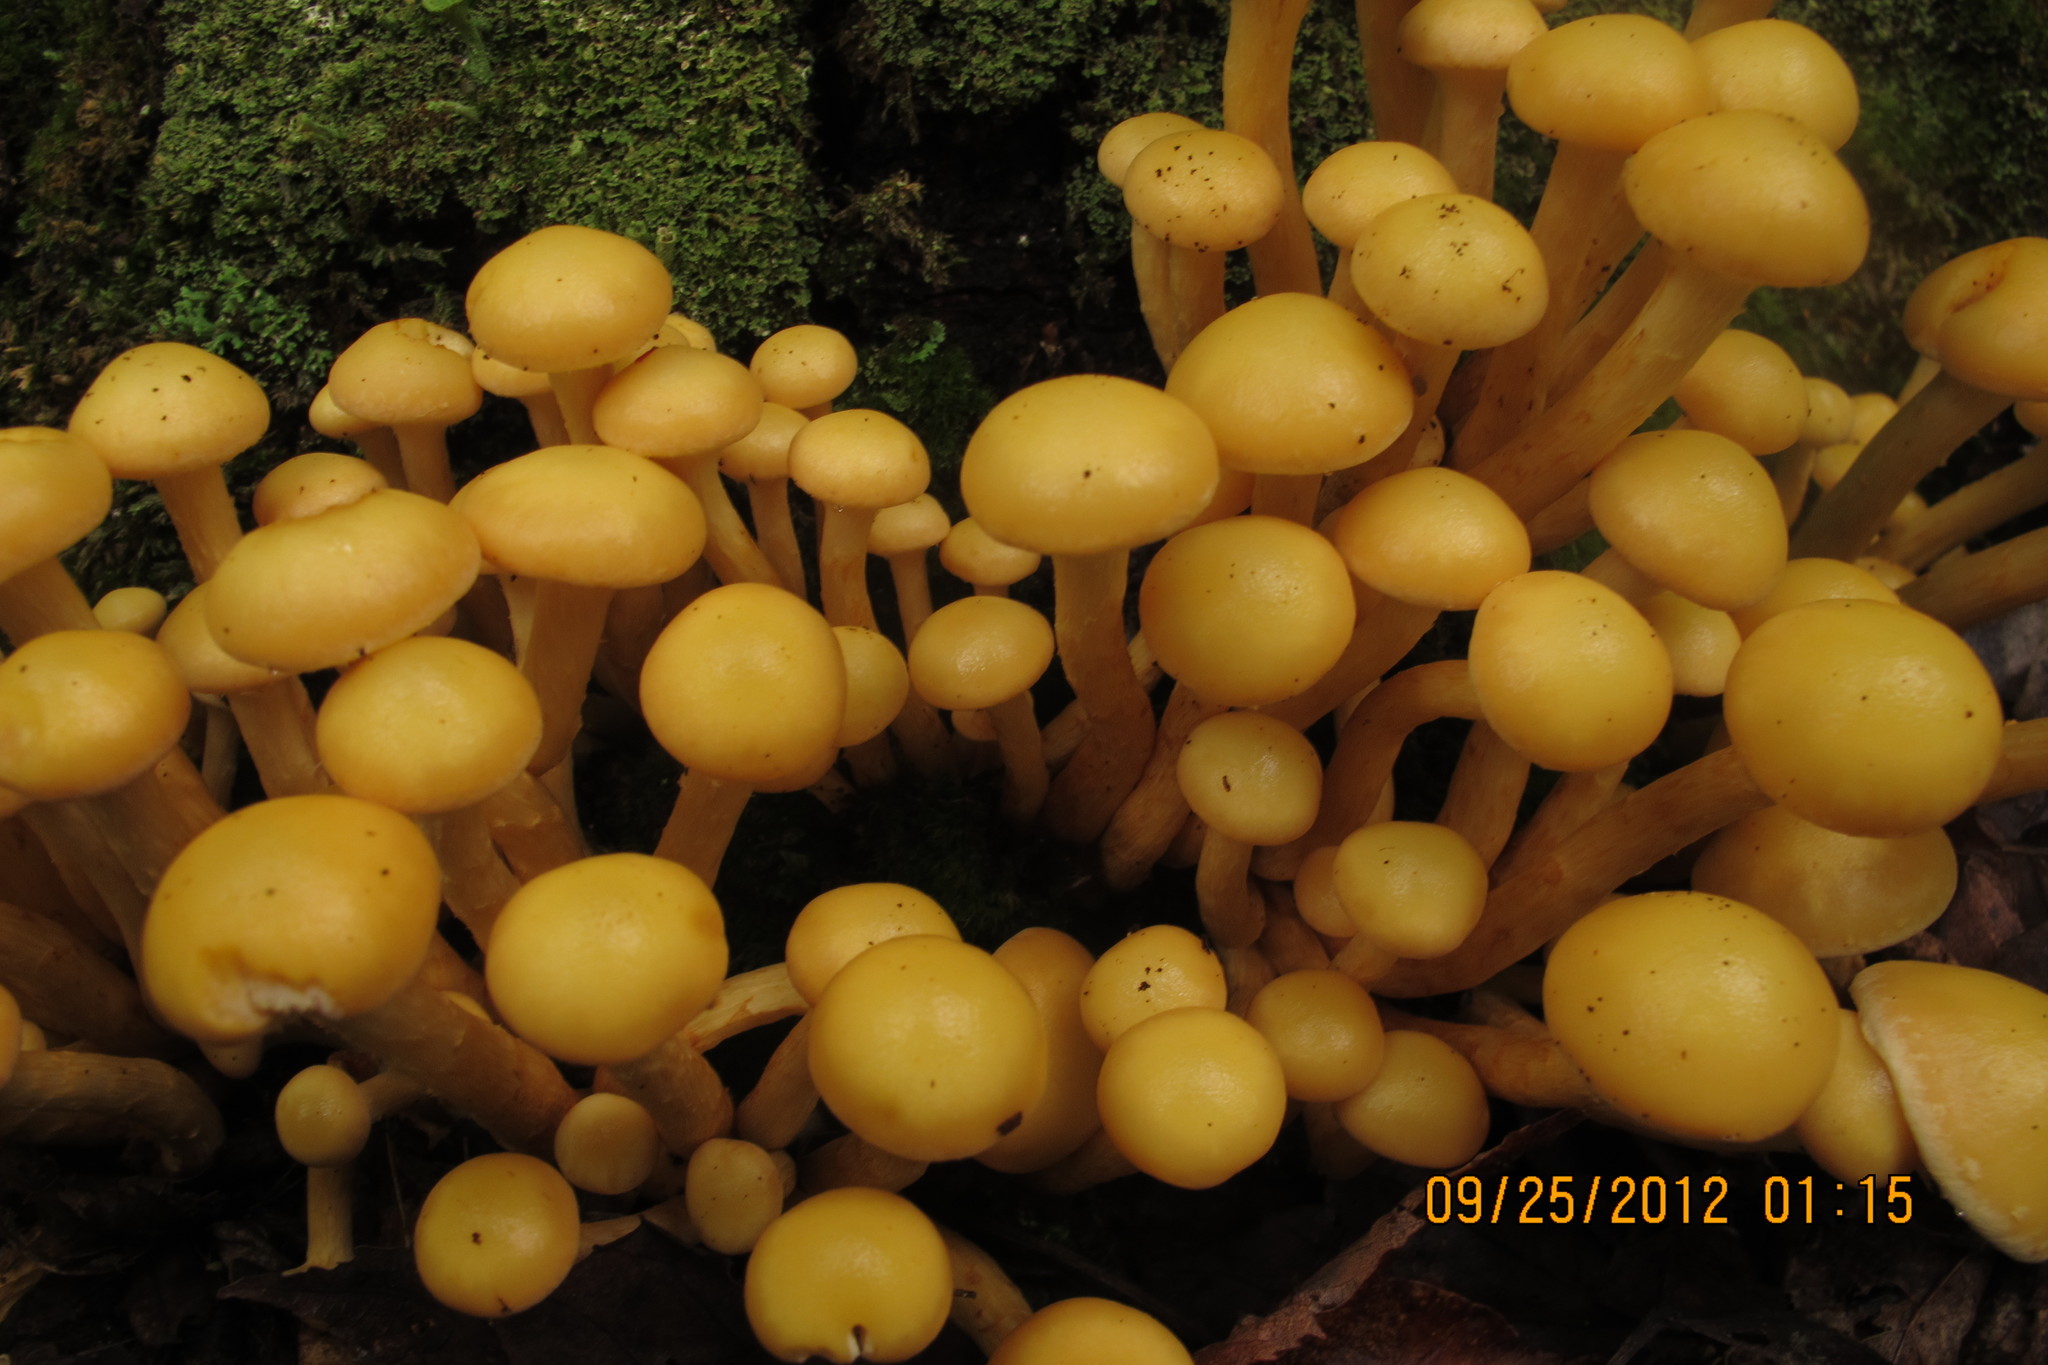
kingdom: Fungi
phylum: Basidiomycota
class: Agaricomycetes
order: Agaricales
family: Hymenogastraceae
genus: Flammula
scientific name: Flammula alnicola
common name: Alder scalycap
